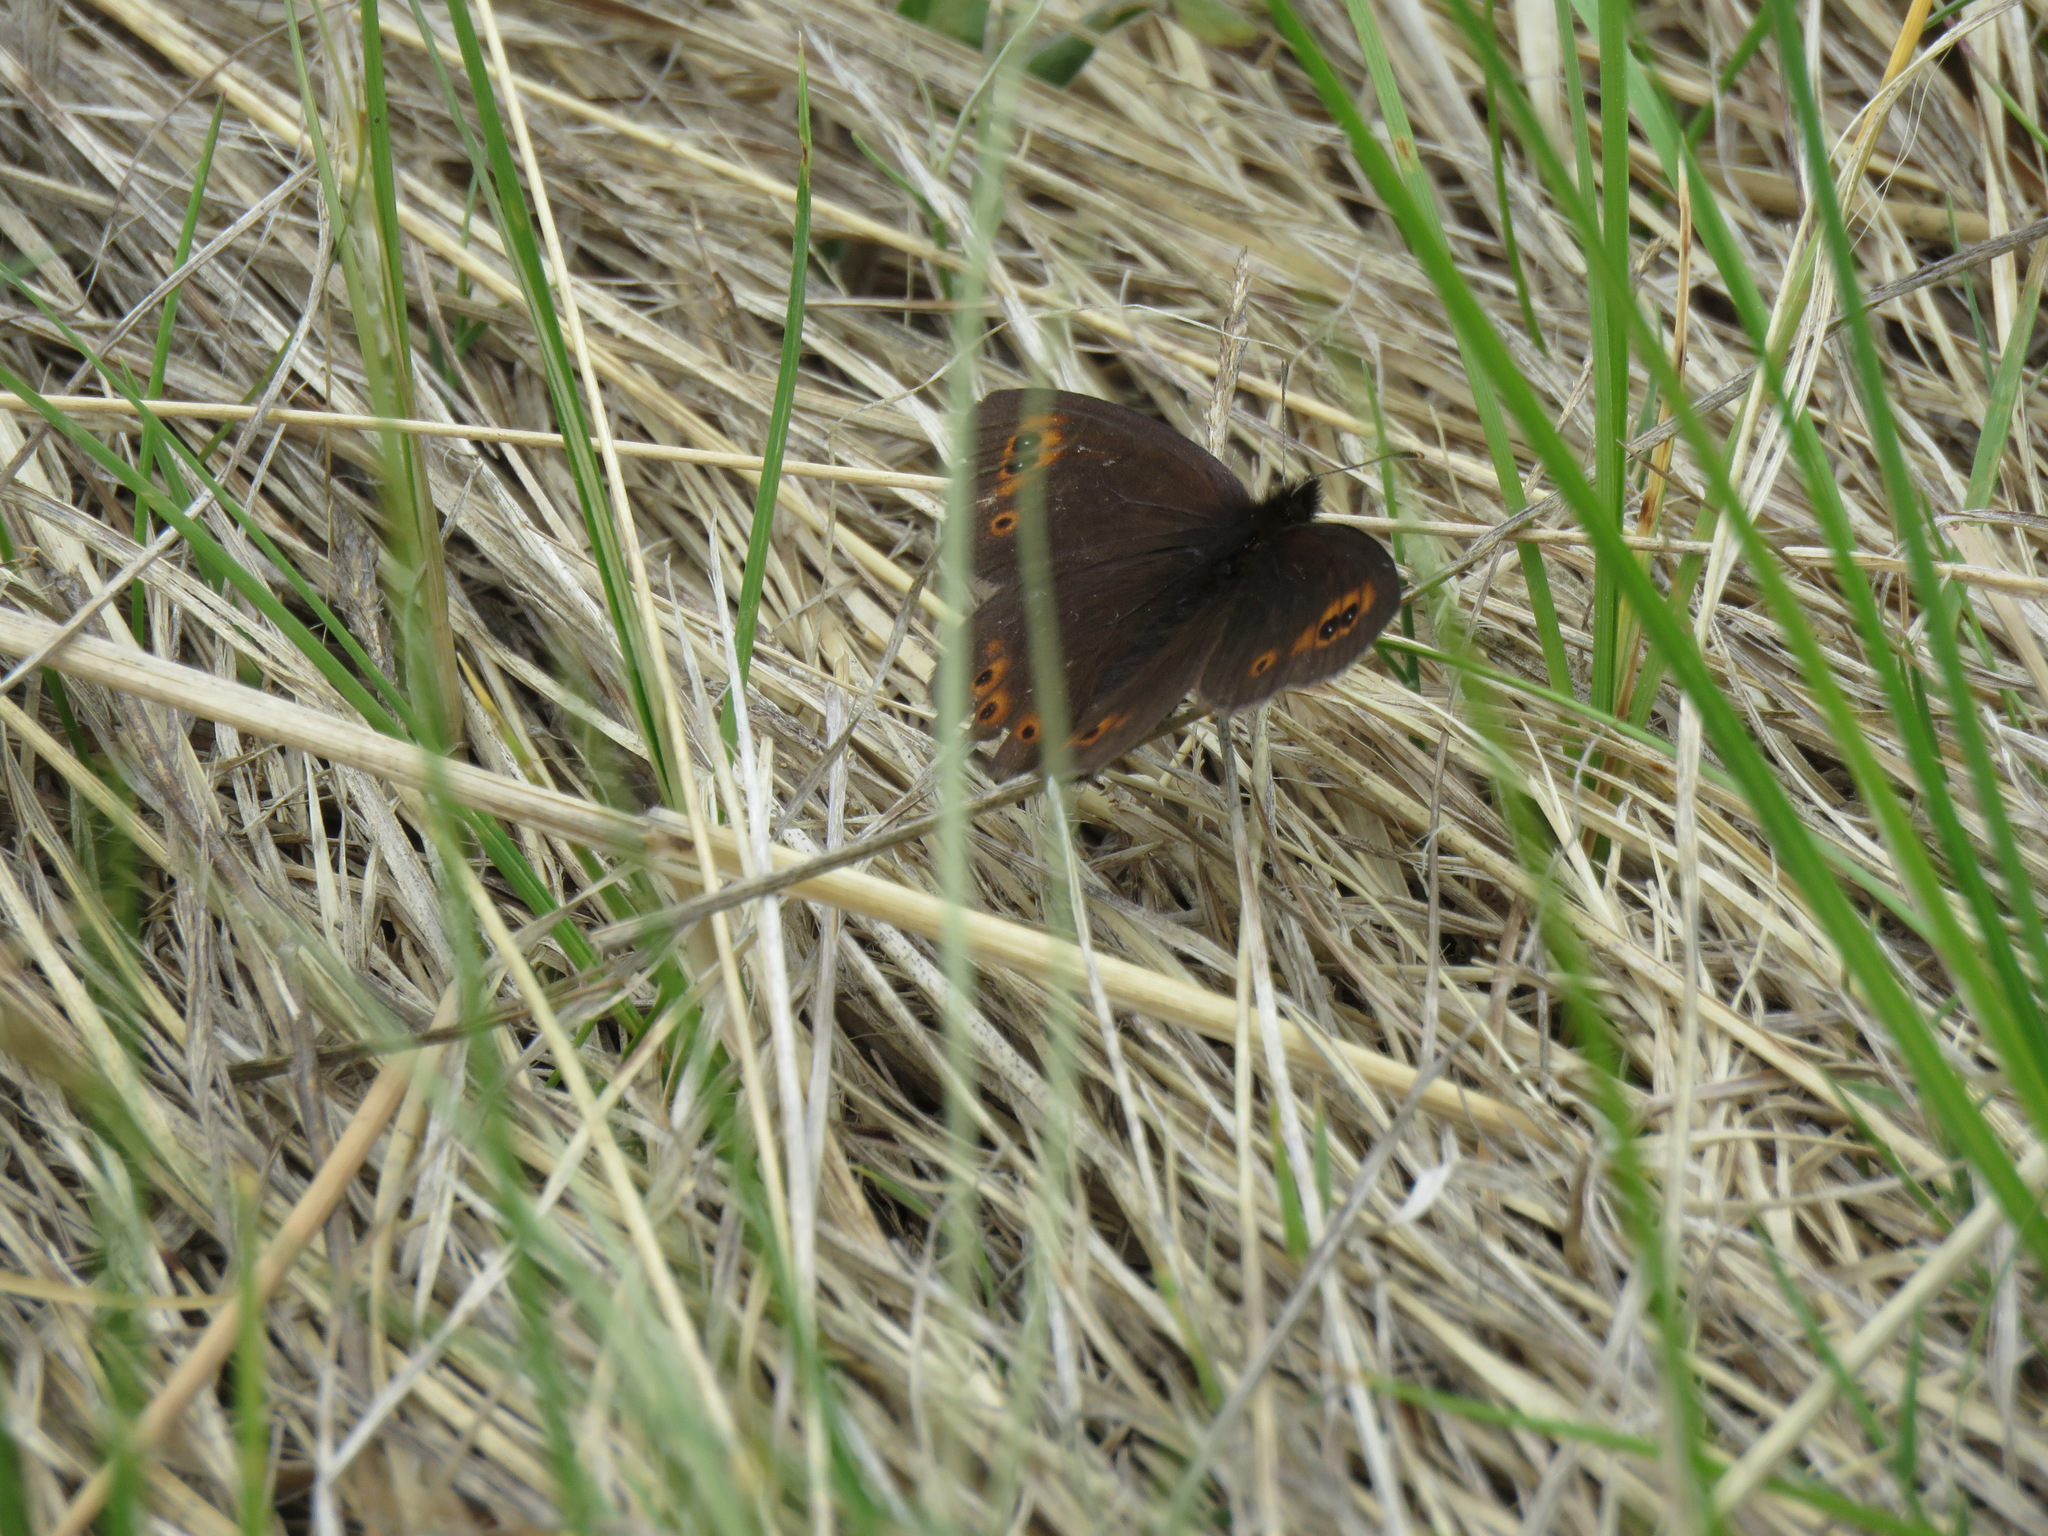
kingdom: Animalia
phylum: Arthropoda
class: Insecta
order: Lepidoptera
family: Nymphalidae
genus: Erebia
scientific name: Erebia epipsodea
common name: Common alpine
